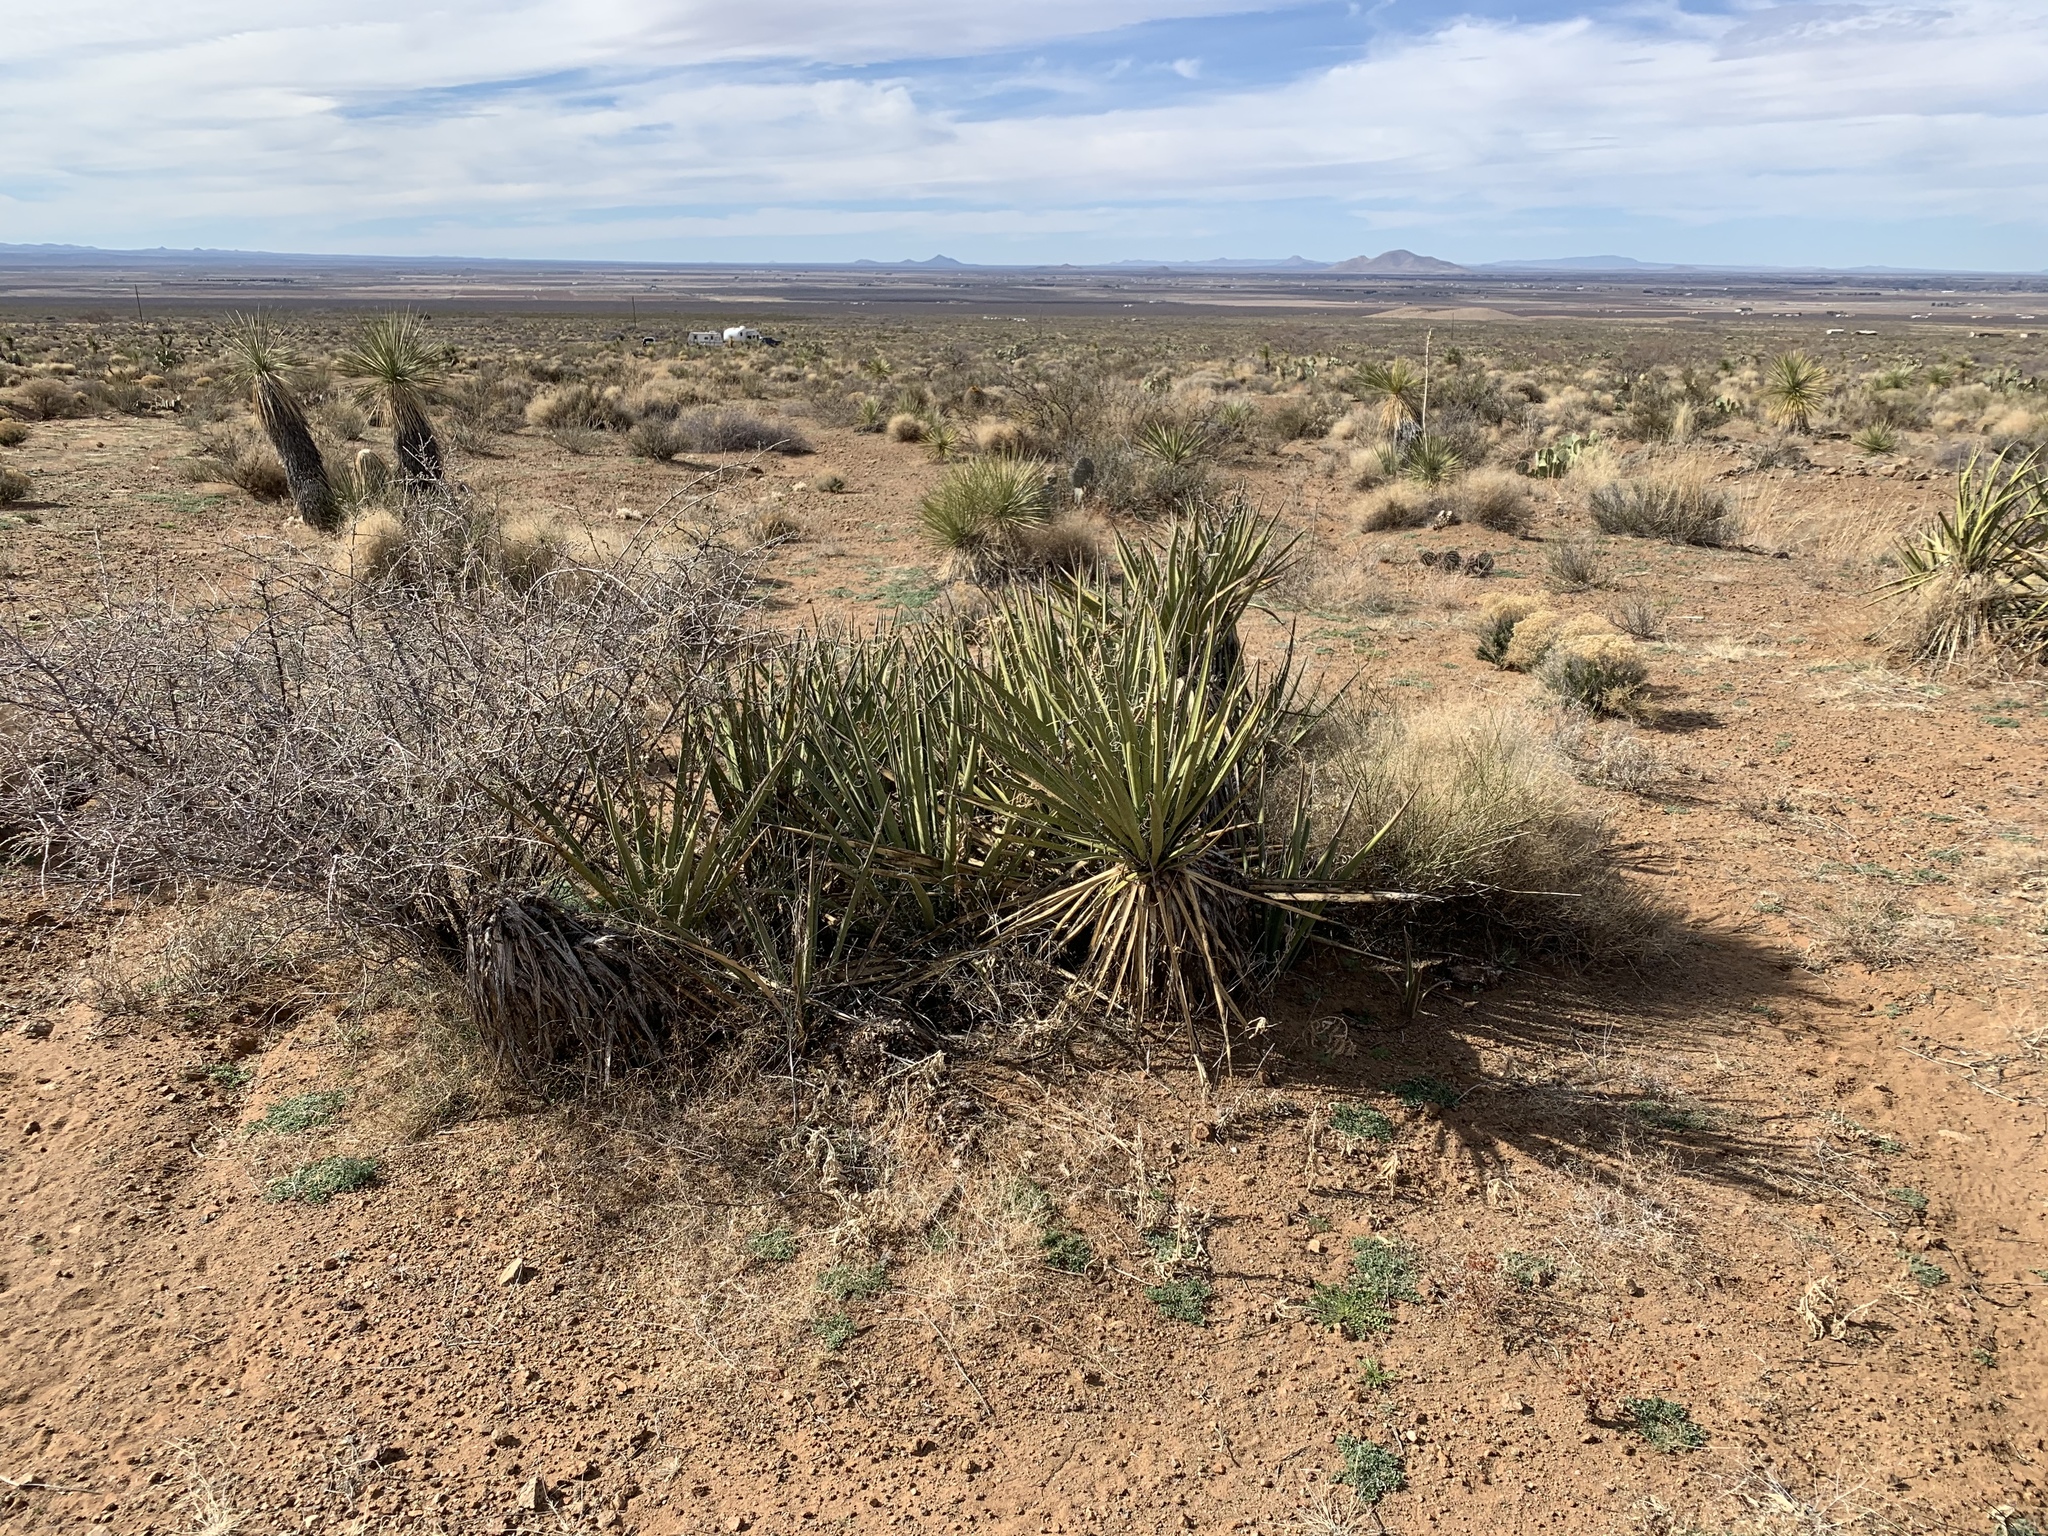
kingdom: Plantae
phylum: Tracheophyta
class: Liliopsida
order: Asparagales
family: Asparagaceae
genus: Yucca
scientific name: Yucca baccata
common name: Banana yucca
